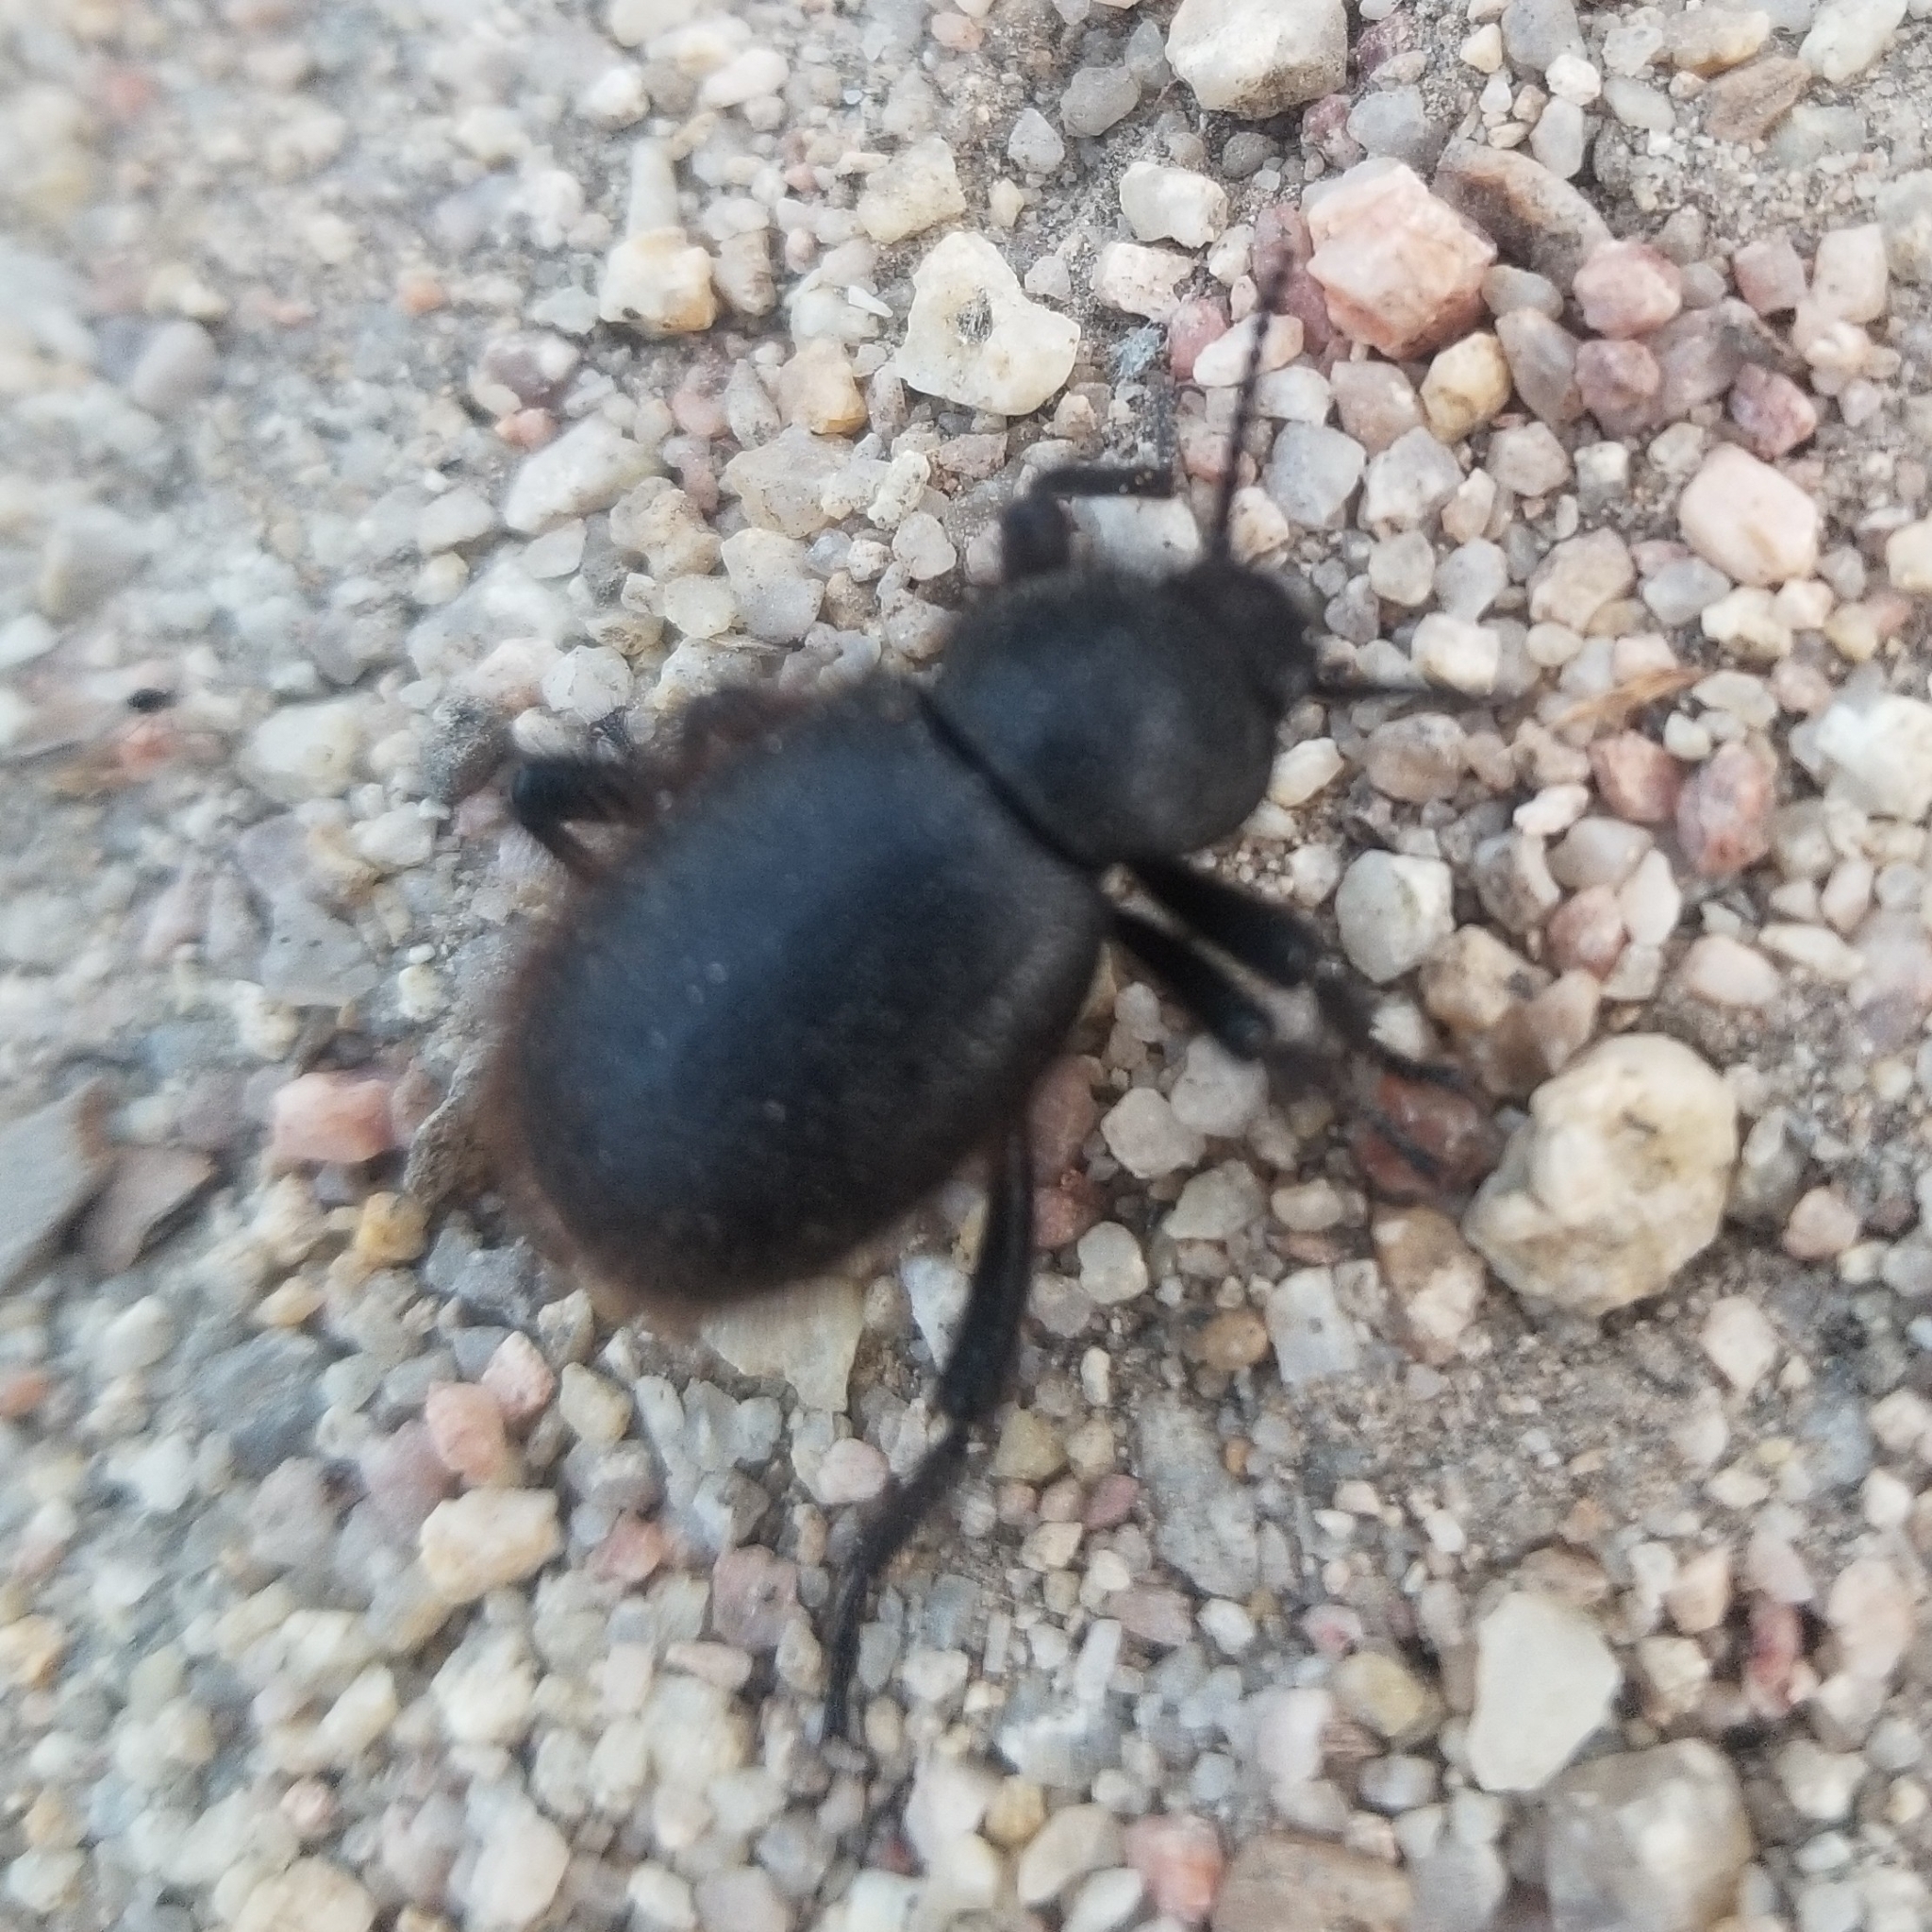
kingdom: Animalia
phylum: Arthropoda
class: Insecta
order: Coleoptera
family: Tenebrionidae
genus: Eleodes
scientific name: Eleodes osculans
